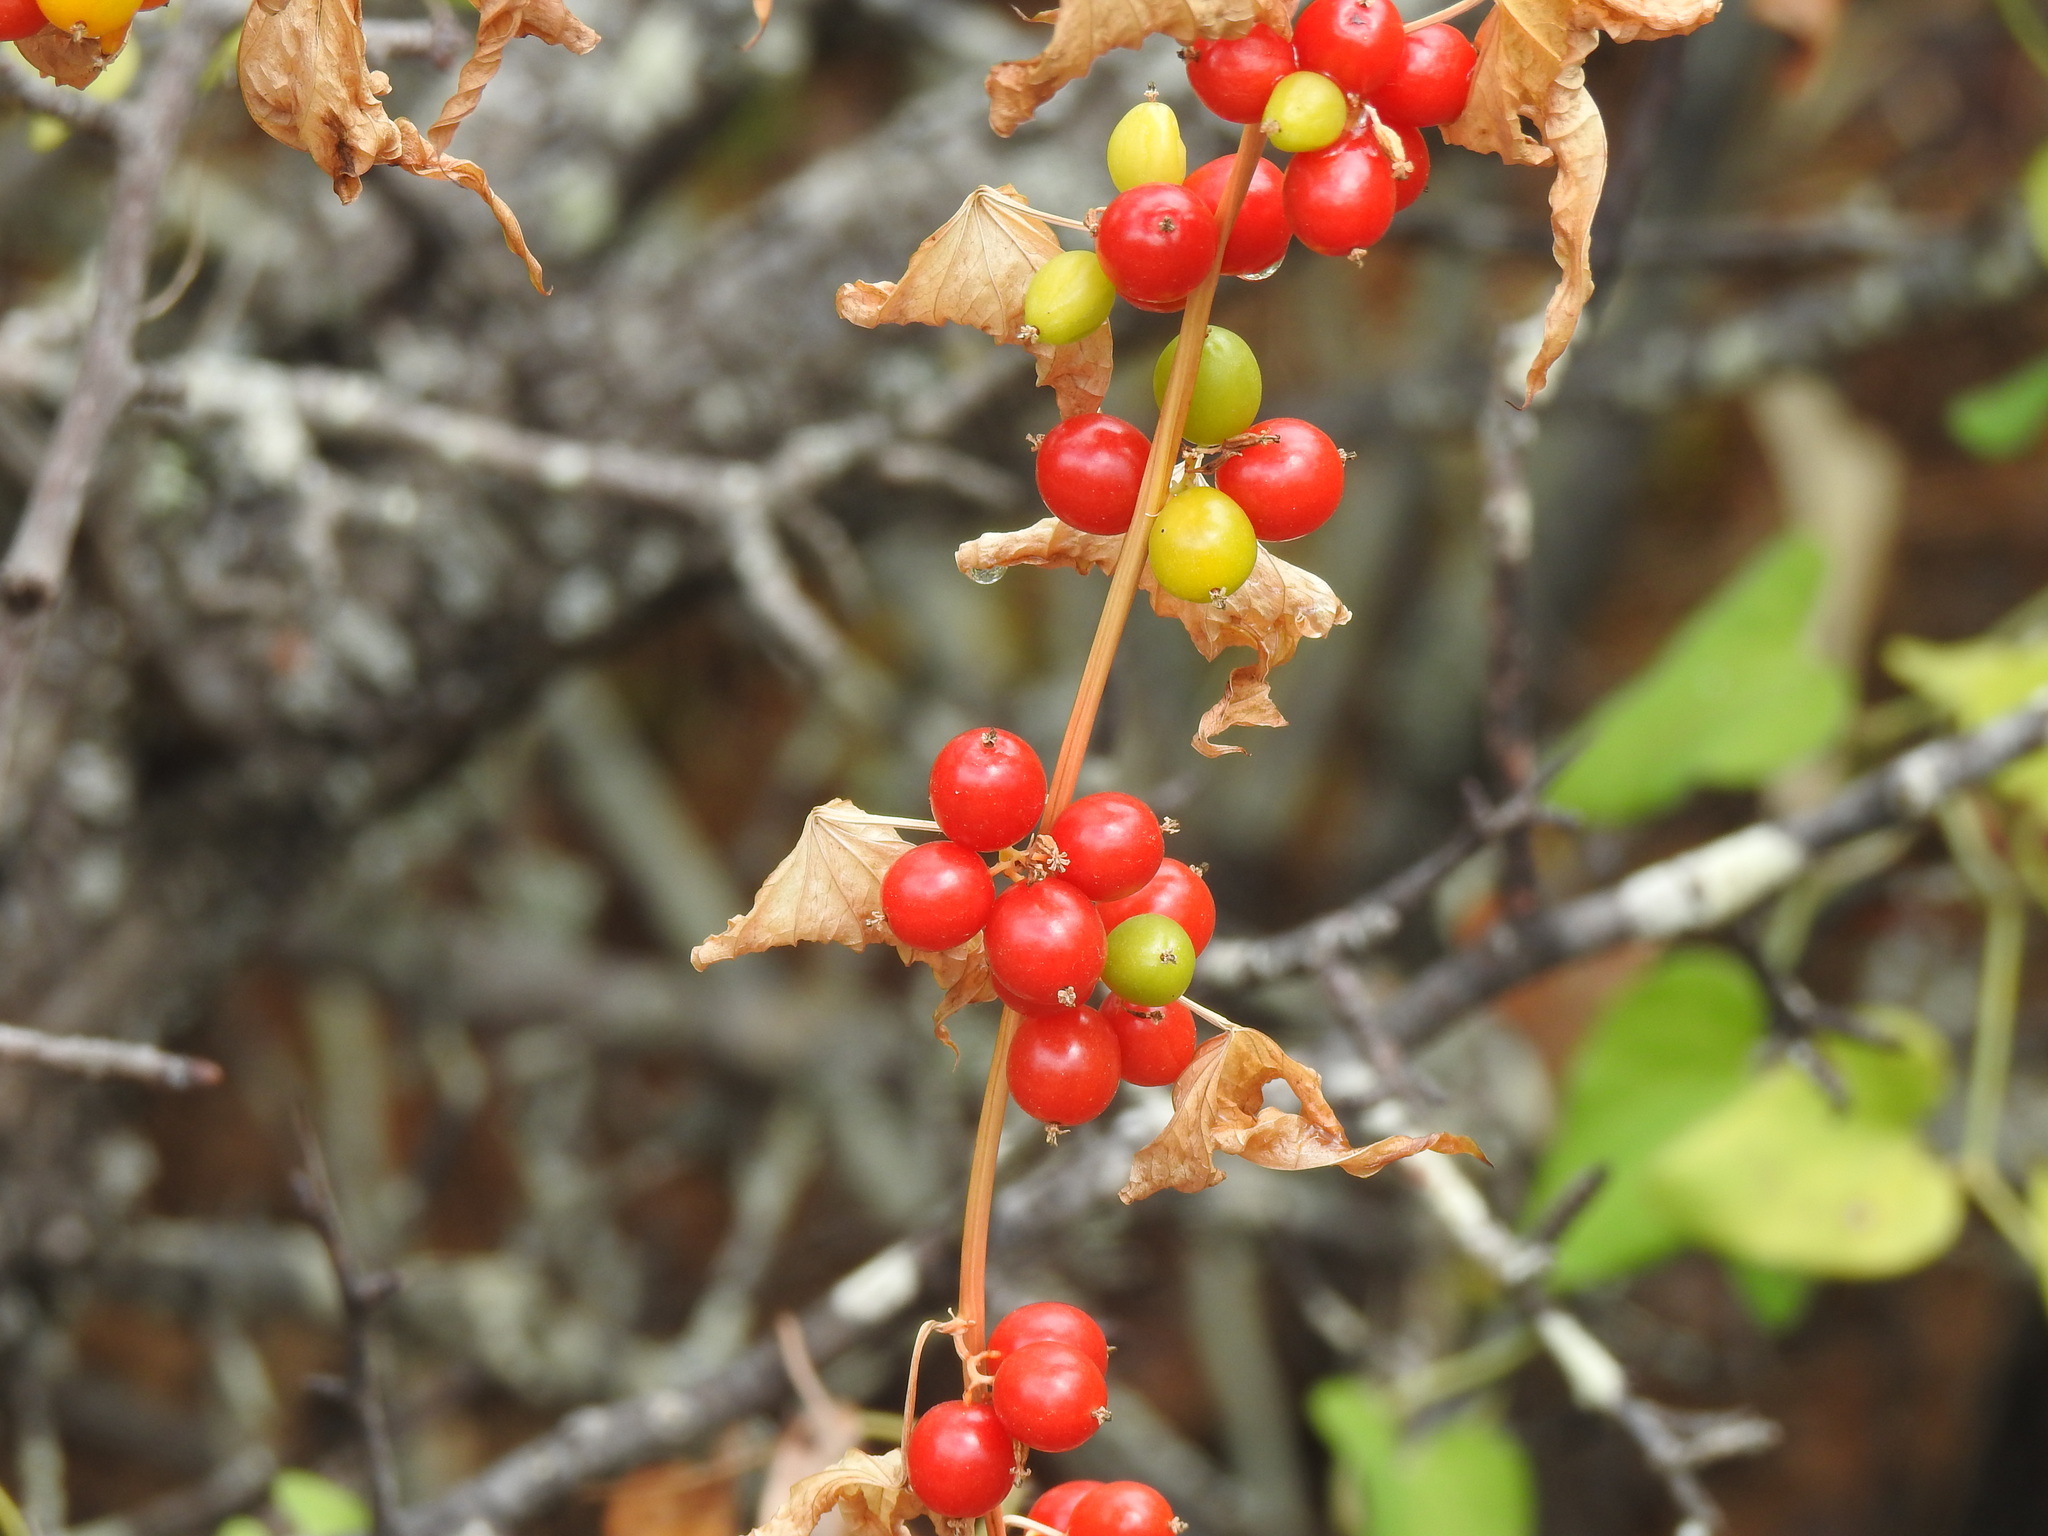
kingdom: Plantae
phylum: Tracheophyta
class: Liliopsida
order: Dioscoreales
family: Dioscoreaceae
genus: Dioscorea
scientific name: Dioscorea communis
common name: Black-bindweed
